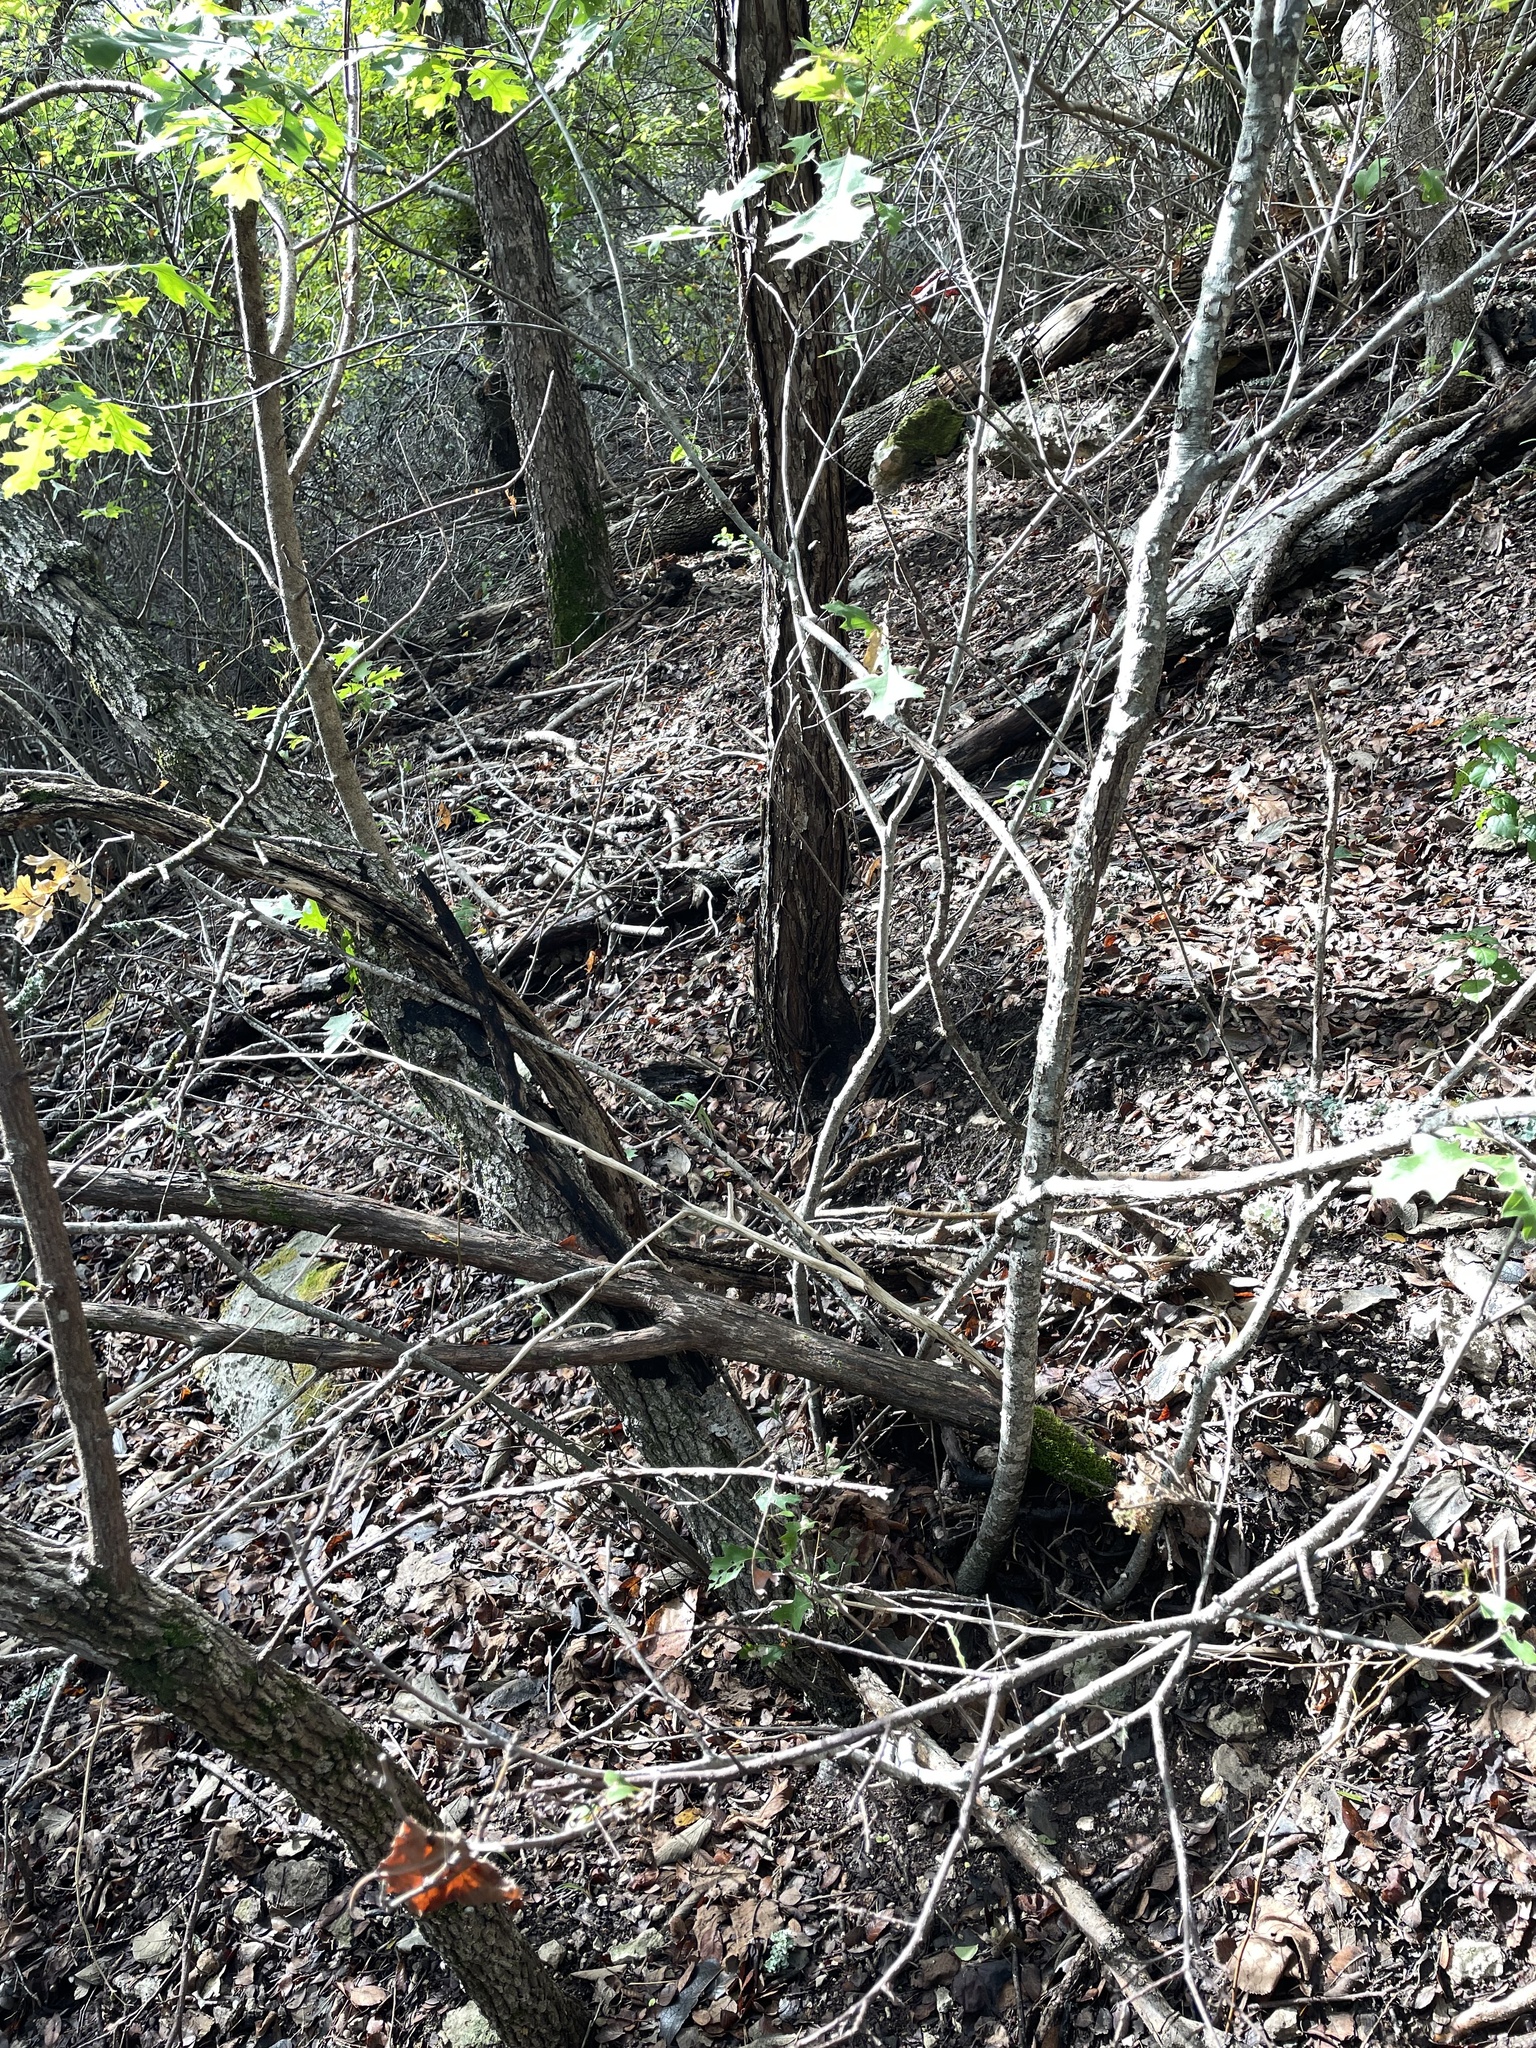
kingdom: Plantae
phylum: Tracheophyta
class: Magnoliopsida
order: Fagales
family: Fagaceae
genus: Quercus
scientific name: Quercus buckleyi
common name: Buckley oak
